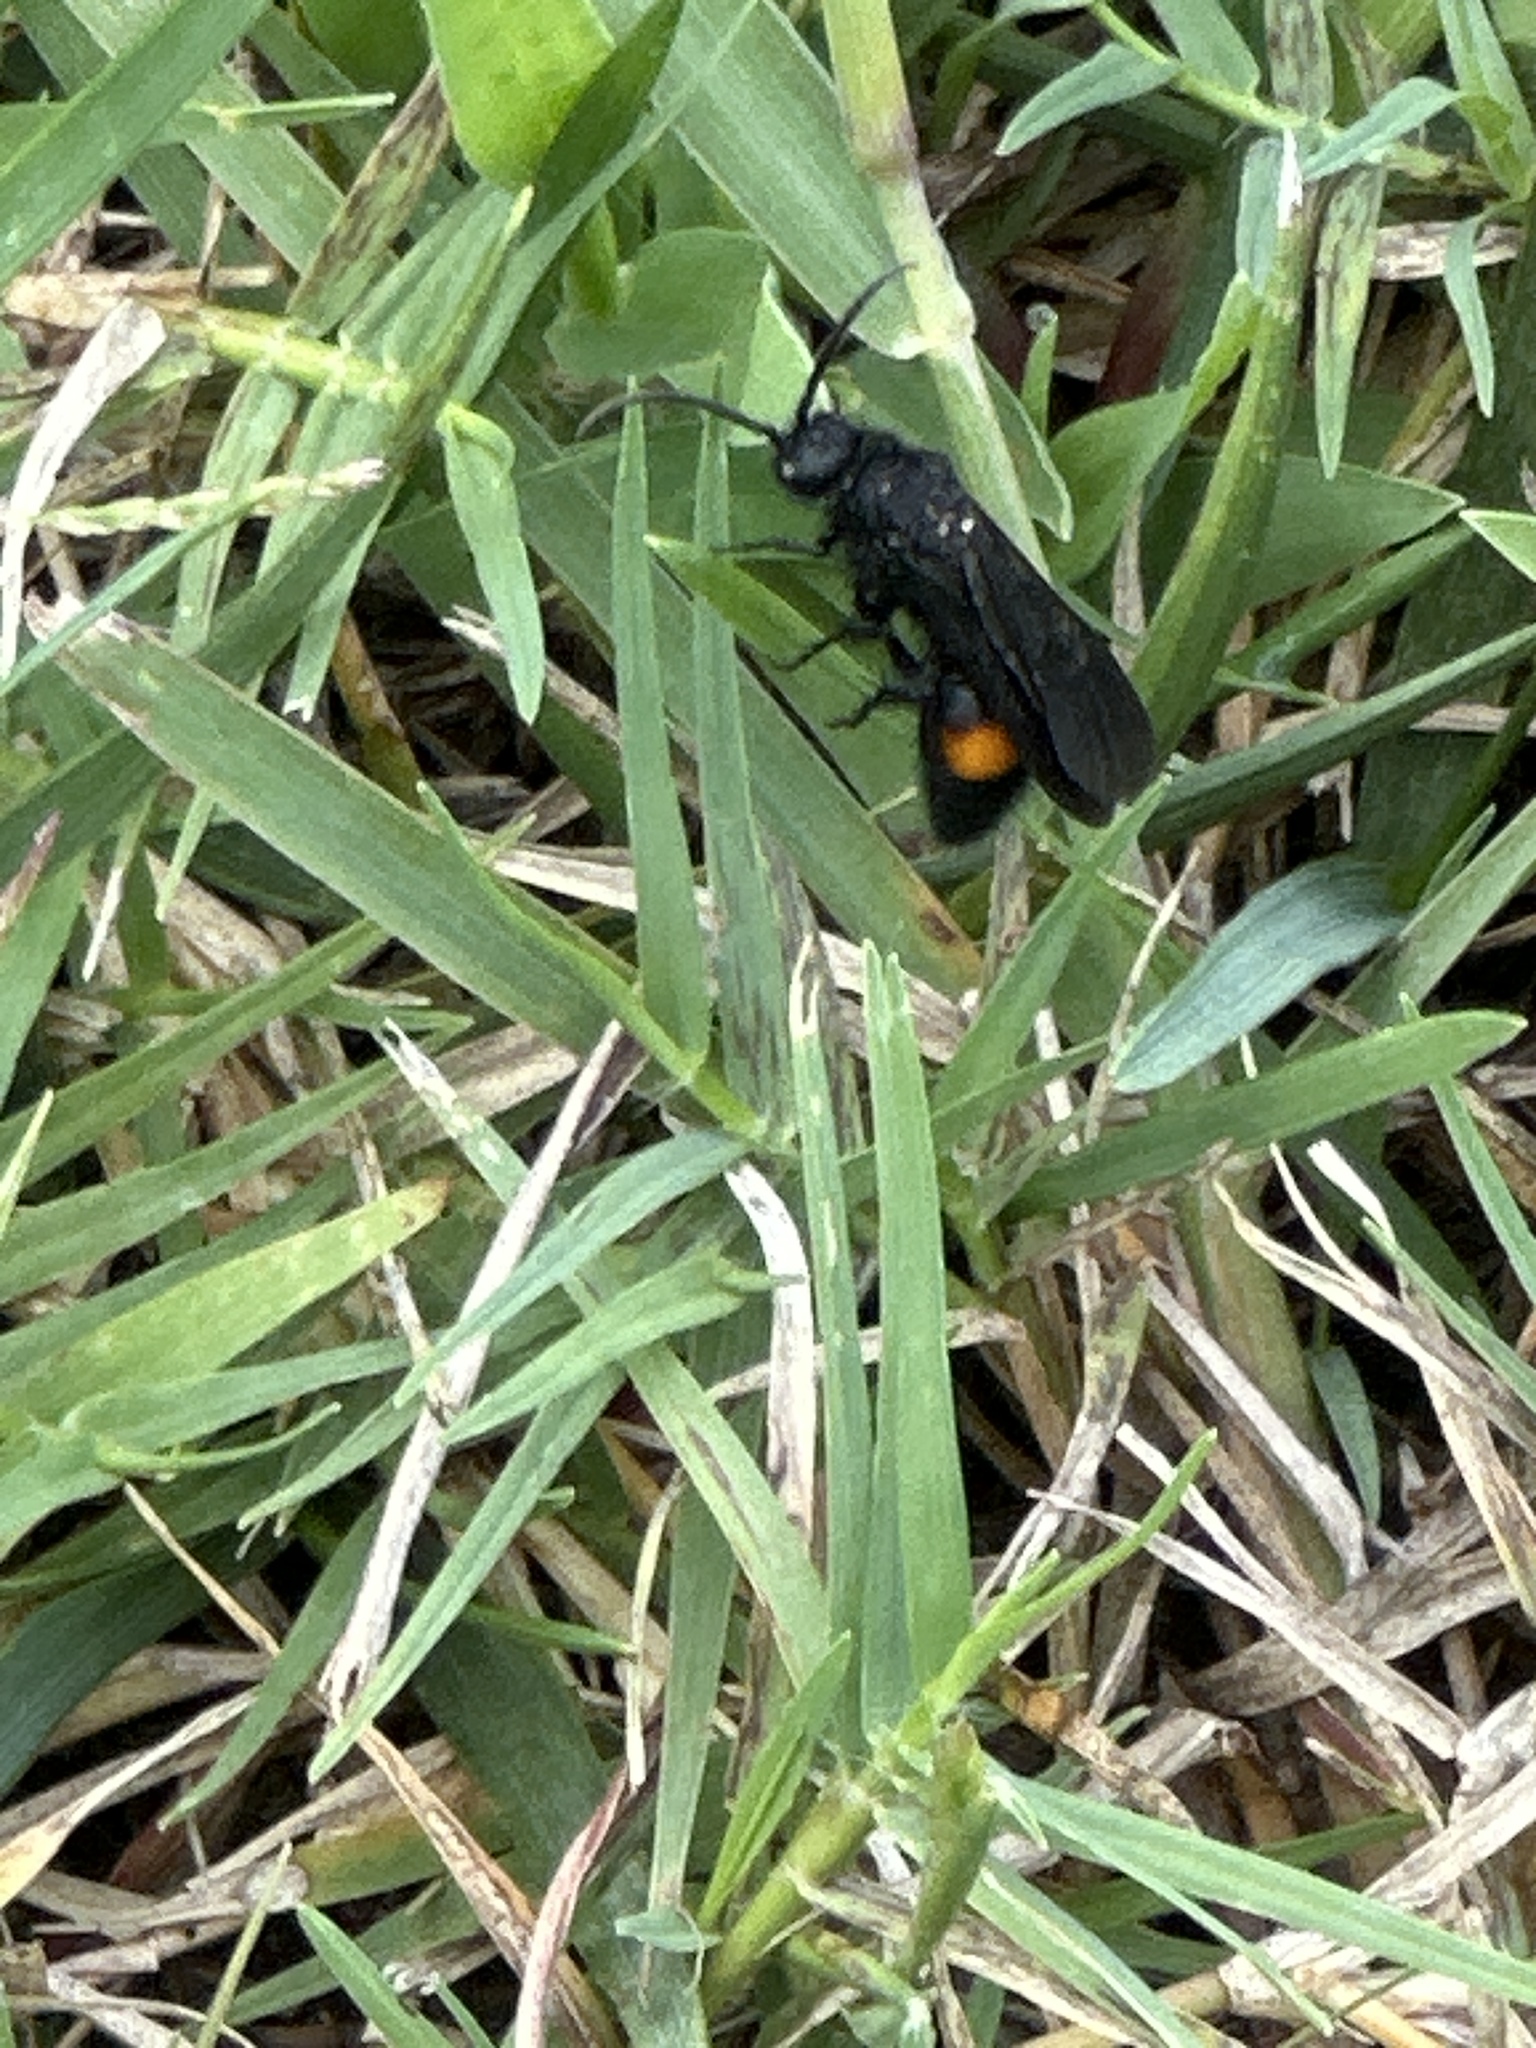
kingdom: Animalia
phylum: Arthropoda
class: Insecta
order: Hymenoptera
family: Mutillidae
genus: Dasymutilla
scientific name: Dasymutilla
